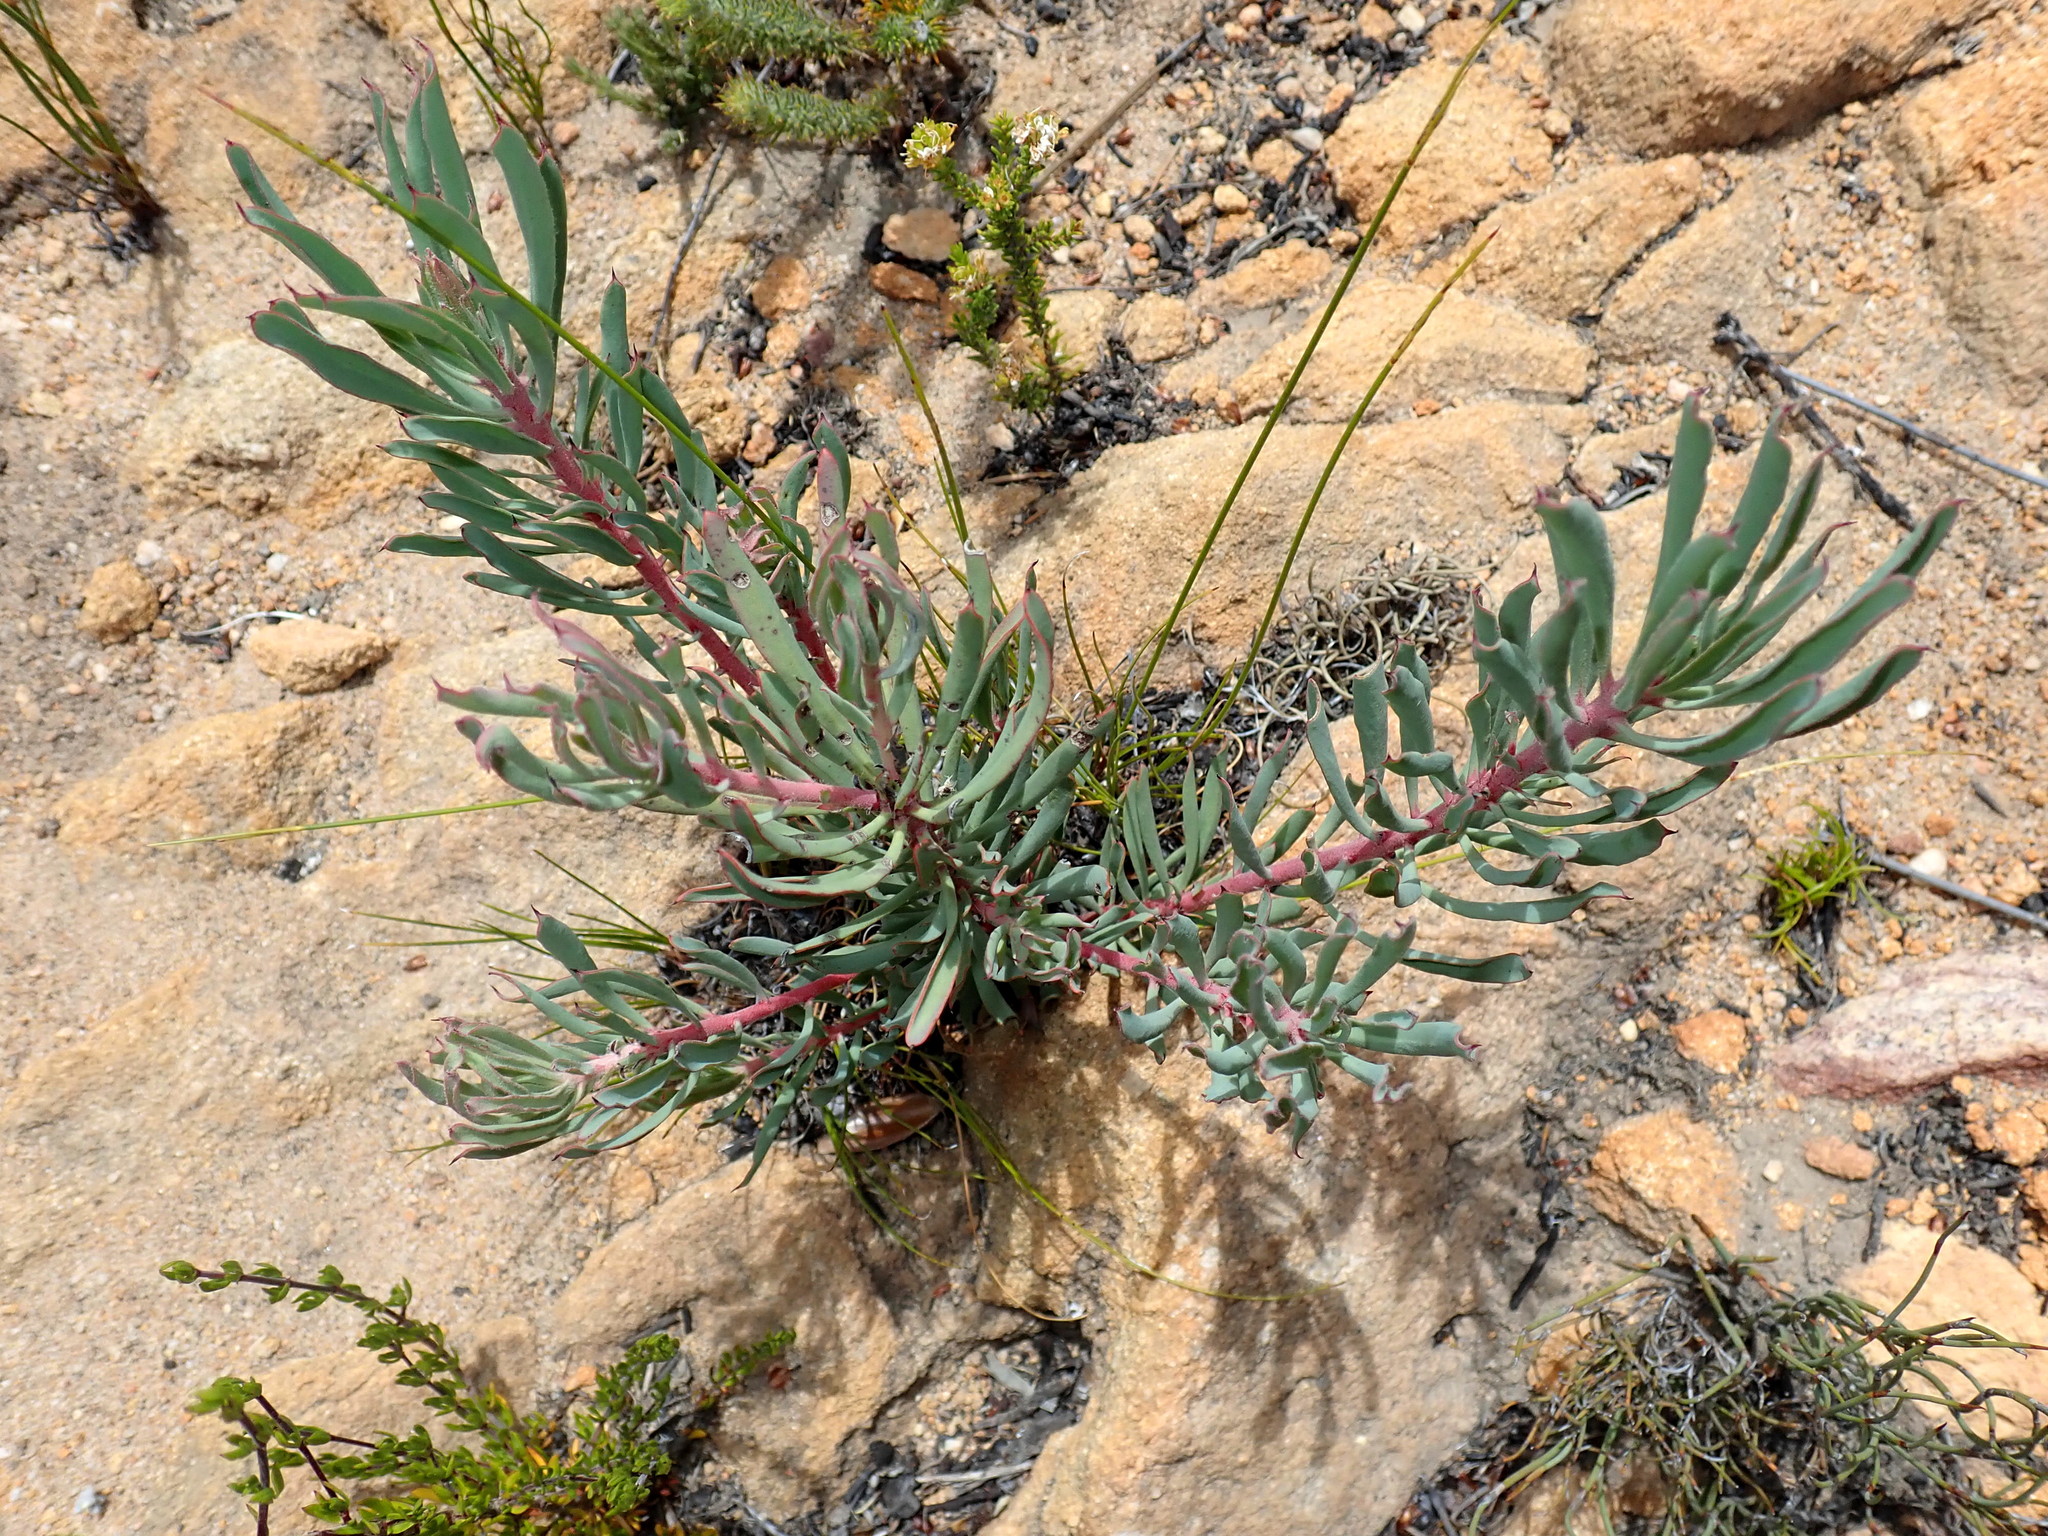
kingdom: Plantae
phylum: Tracheophyta
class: Magnoliopsida
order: Proteales
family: Proteaceae
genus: Protea
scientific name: Protea canaliculata
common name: Groove-leaf sugarbush
